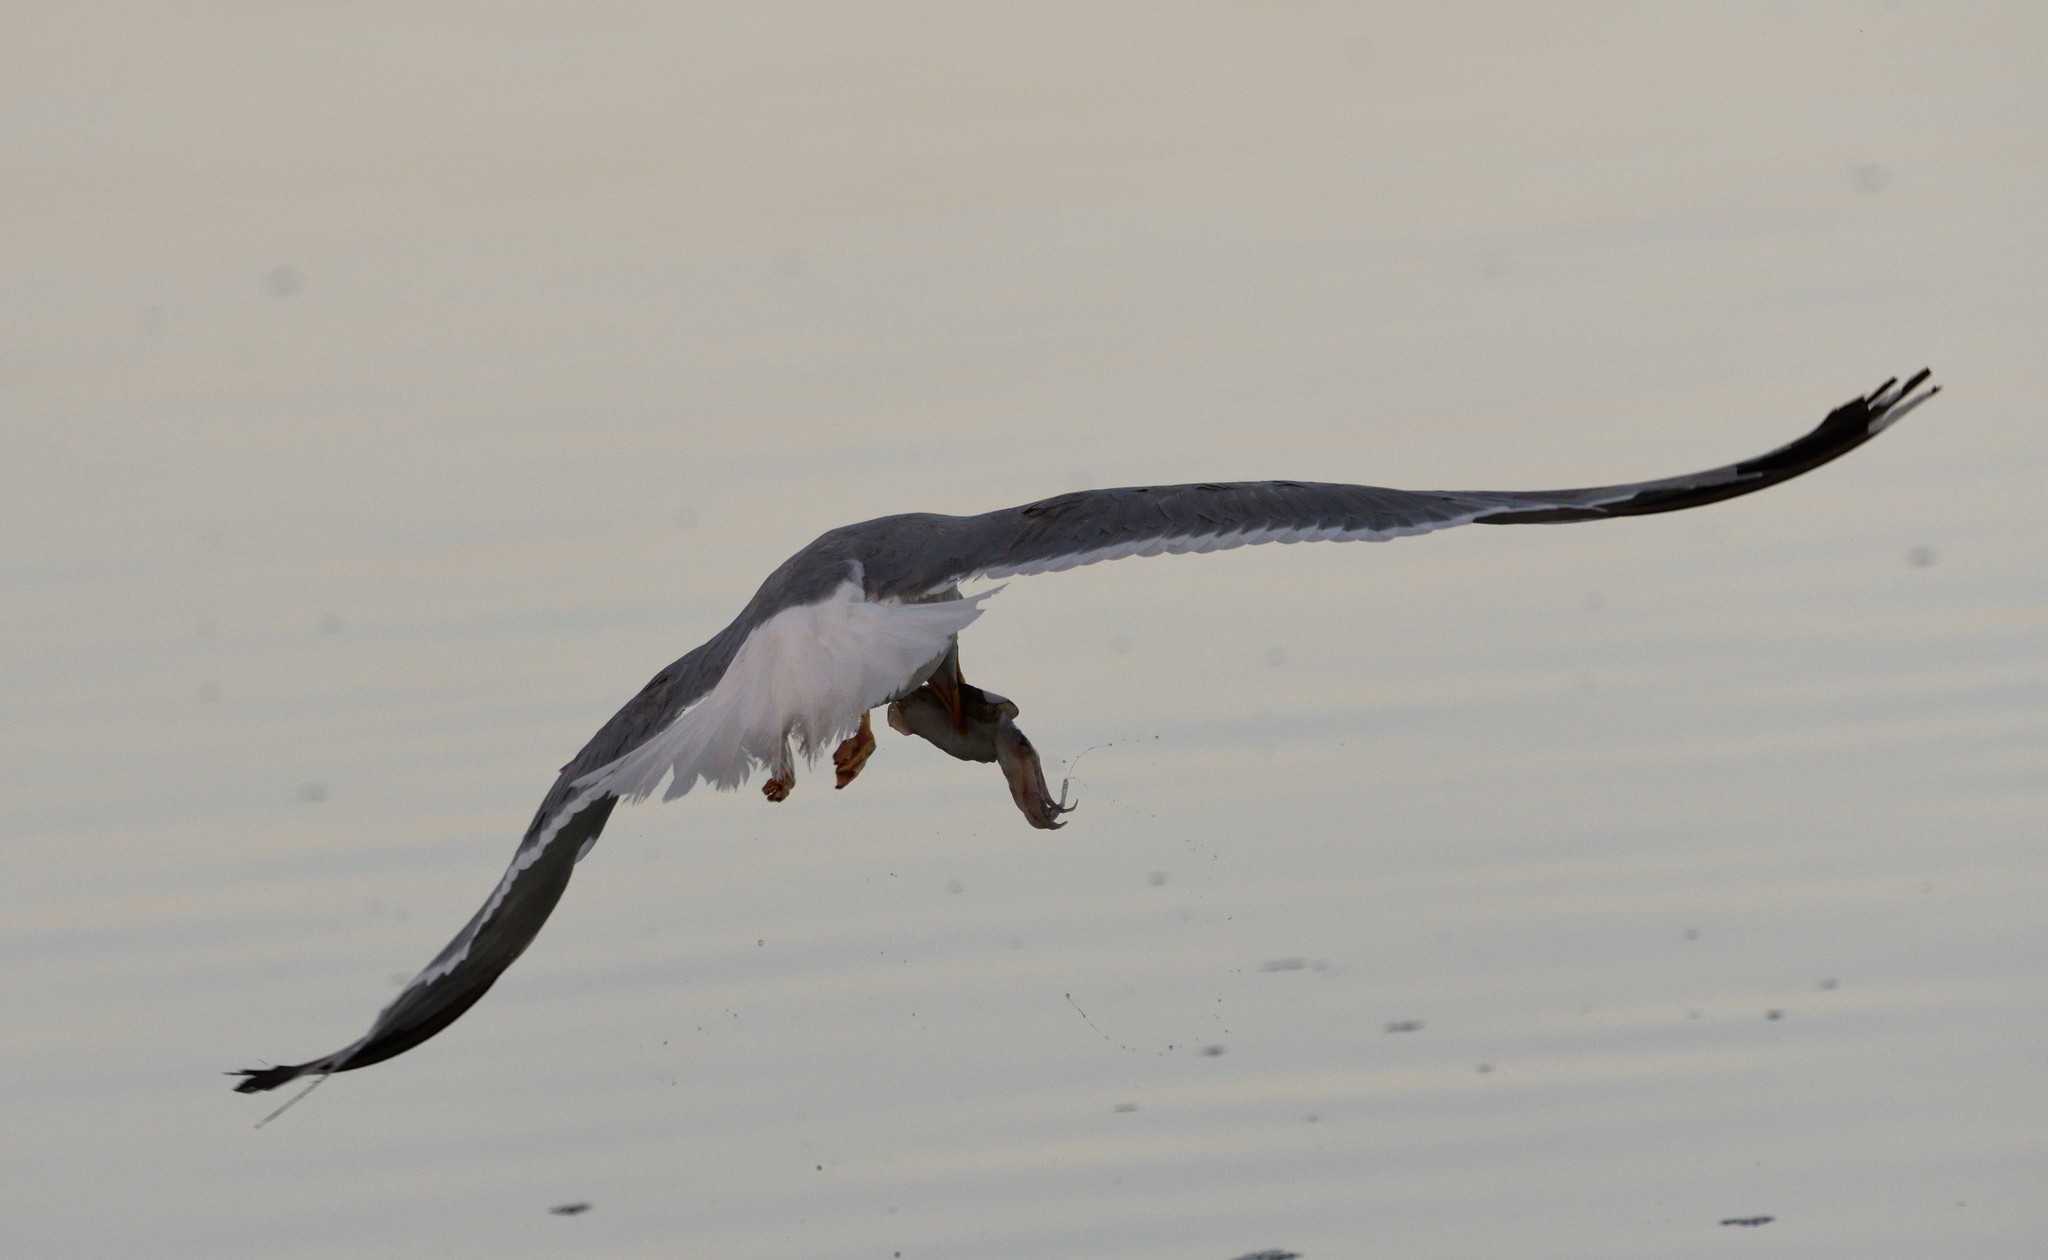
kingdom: Animalia
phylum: Chordata
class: Aves
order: Charadriiformes
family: Laridae
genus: Larus
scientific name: Larus michahellis
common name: Yellow-legged gull
